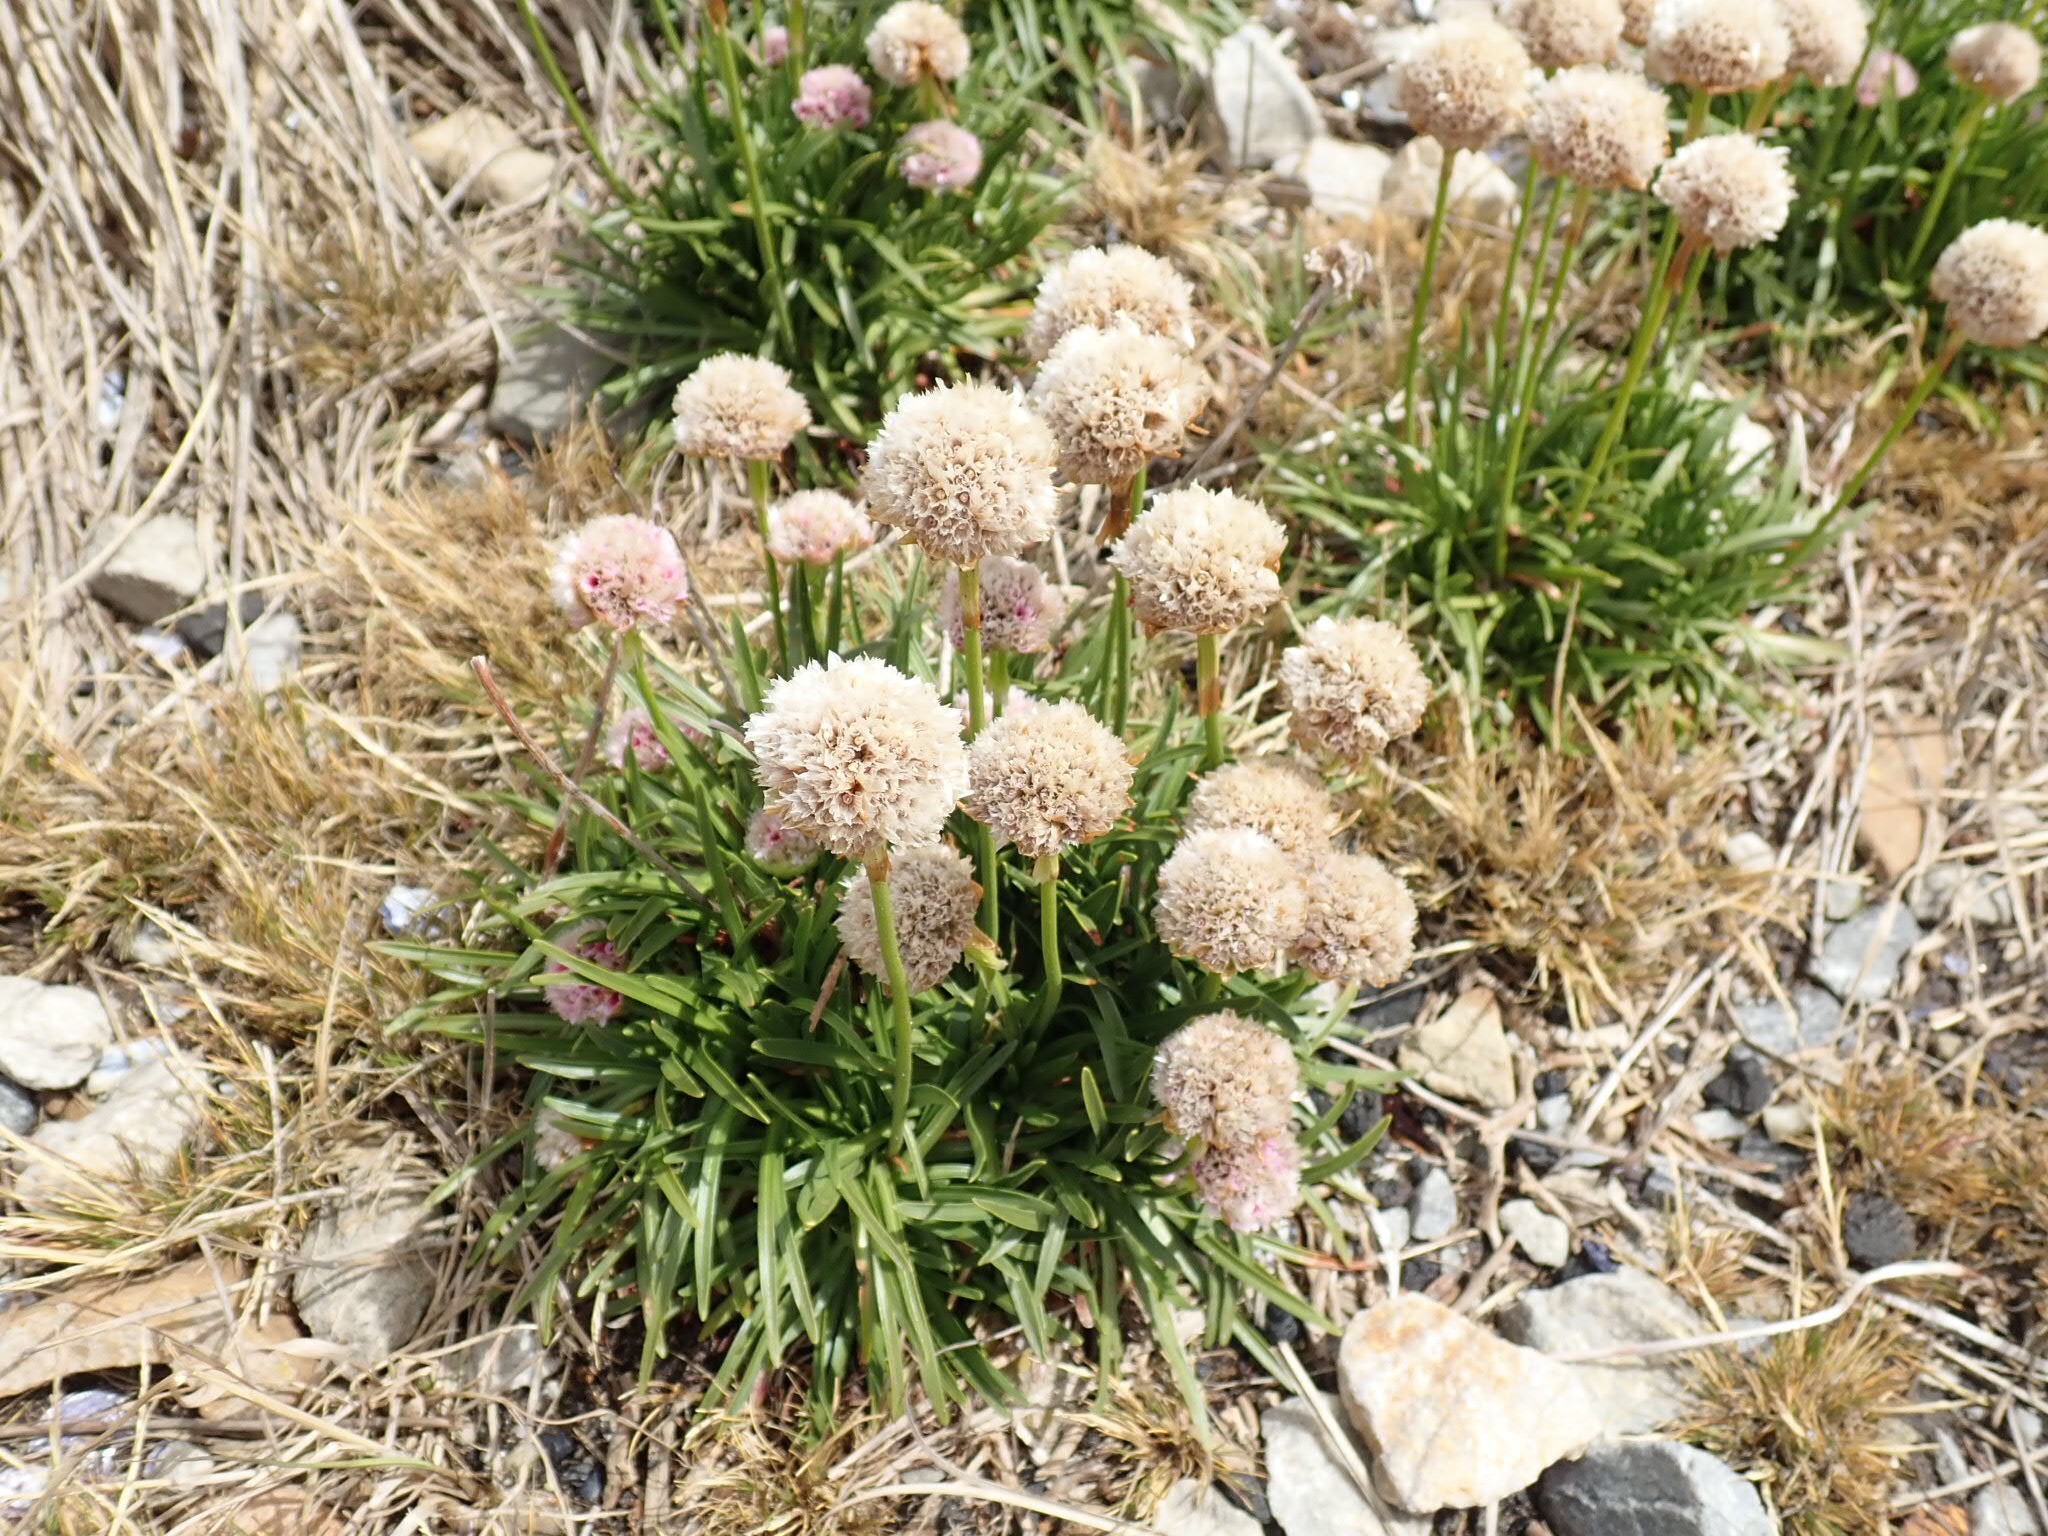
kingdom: Plantae
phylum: Tracheophyta
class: Magnoliopsida
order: Caryophyllales
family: Plumbaginaceae
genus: Armeria
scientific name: Armeria curvifolia
